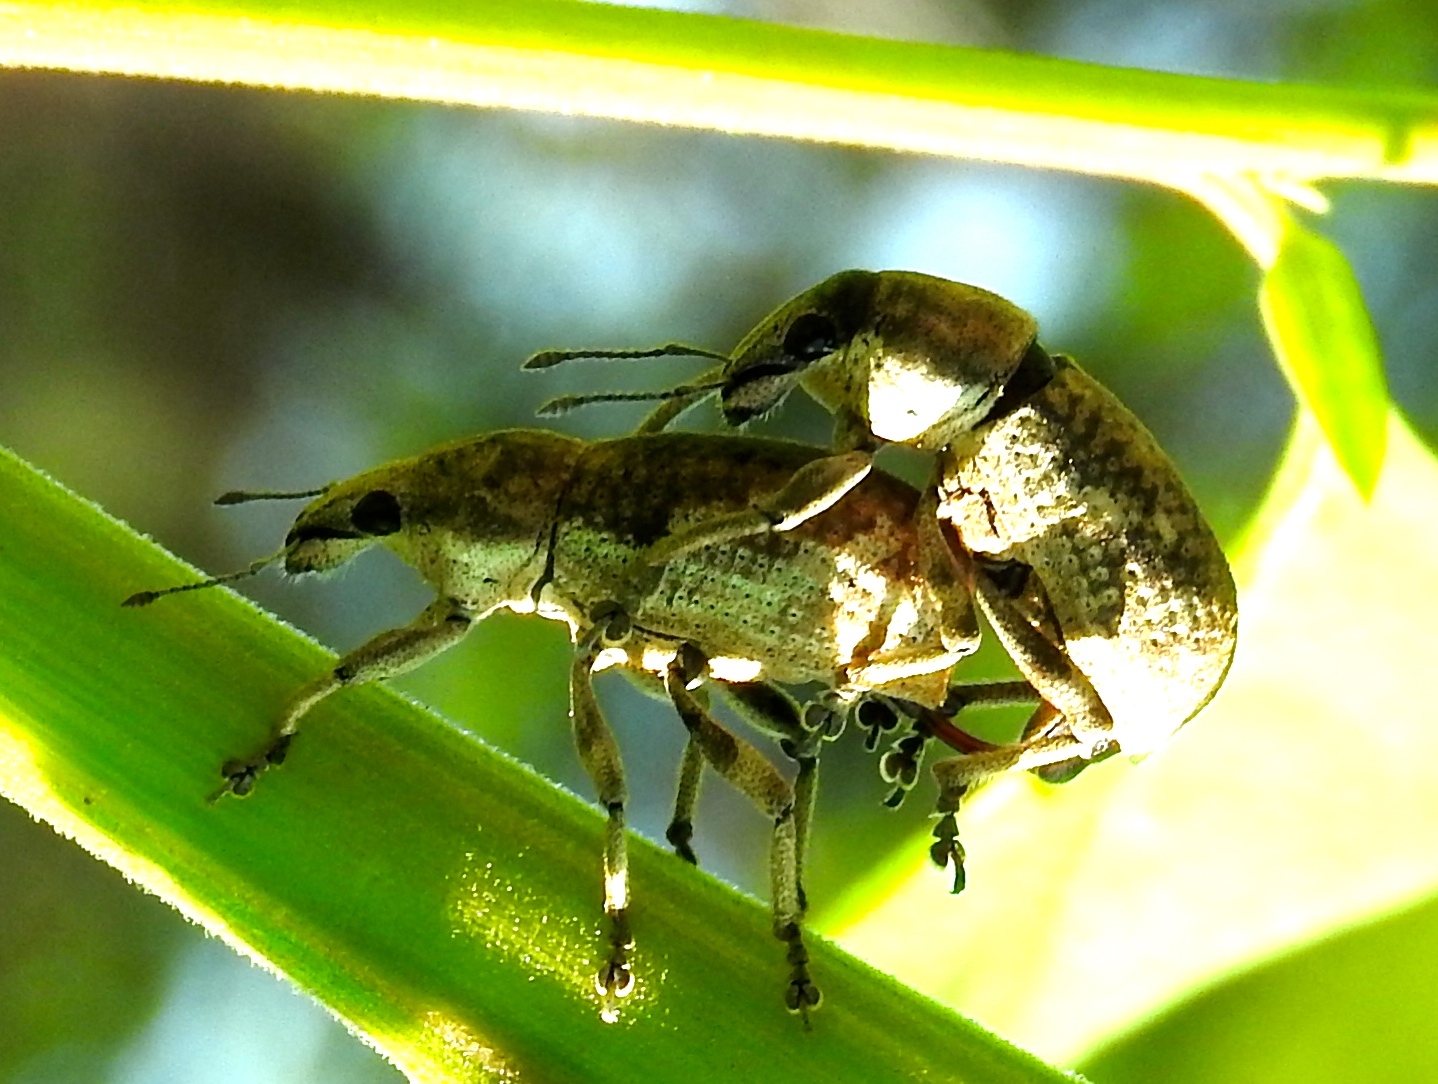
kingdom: Animalia
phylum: Arthropoda
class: Insecta
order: Coleoptera
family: Curculionidae
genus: Epicaerus
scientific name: Epicaerus
